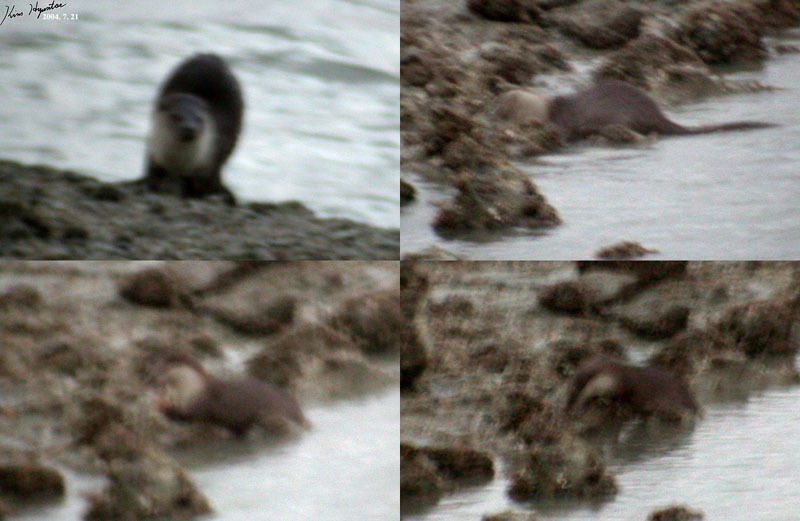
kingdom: Animalia
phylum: Chordata
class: Mammalia
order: Carnivora
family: Mustelidae
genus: Lutra
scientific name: Lutra lutra
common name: European otter
